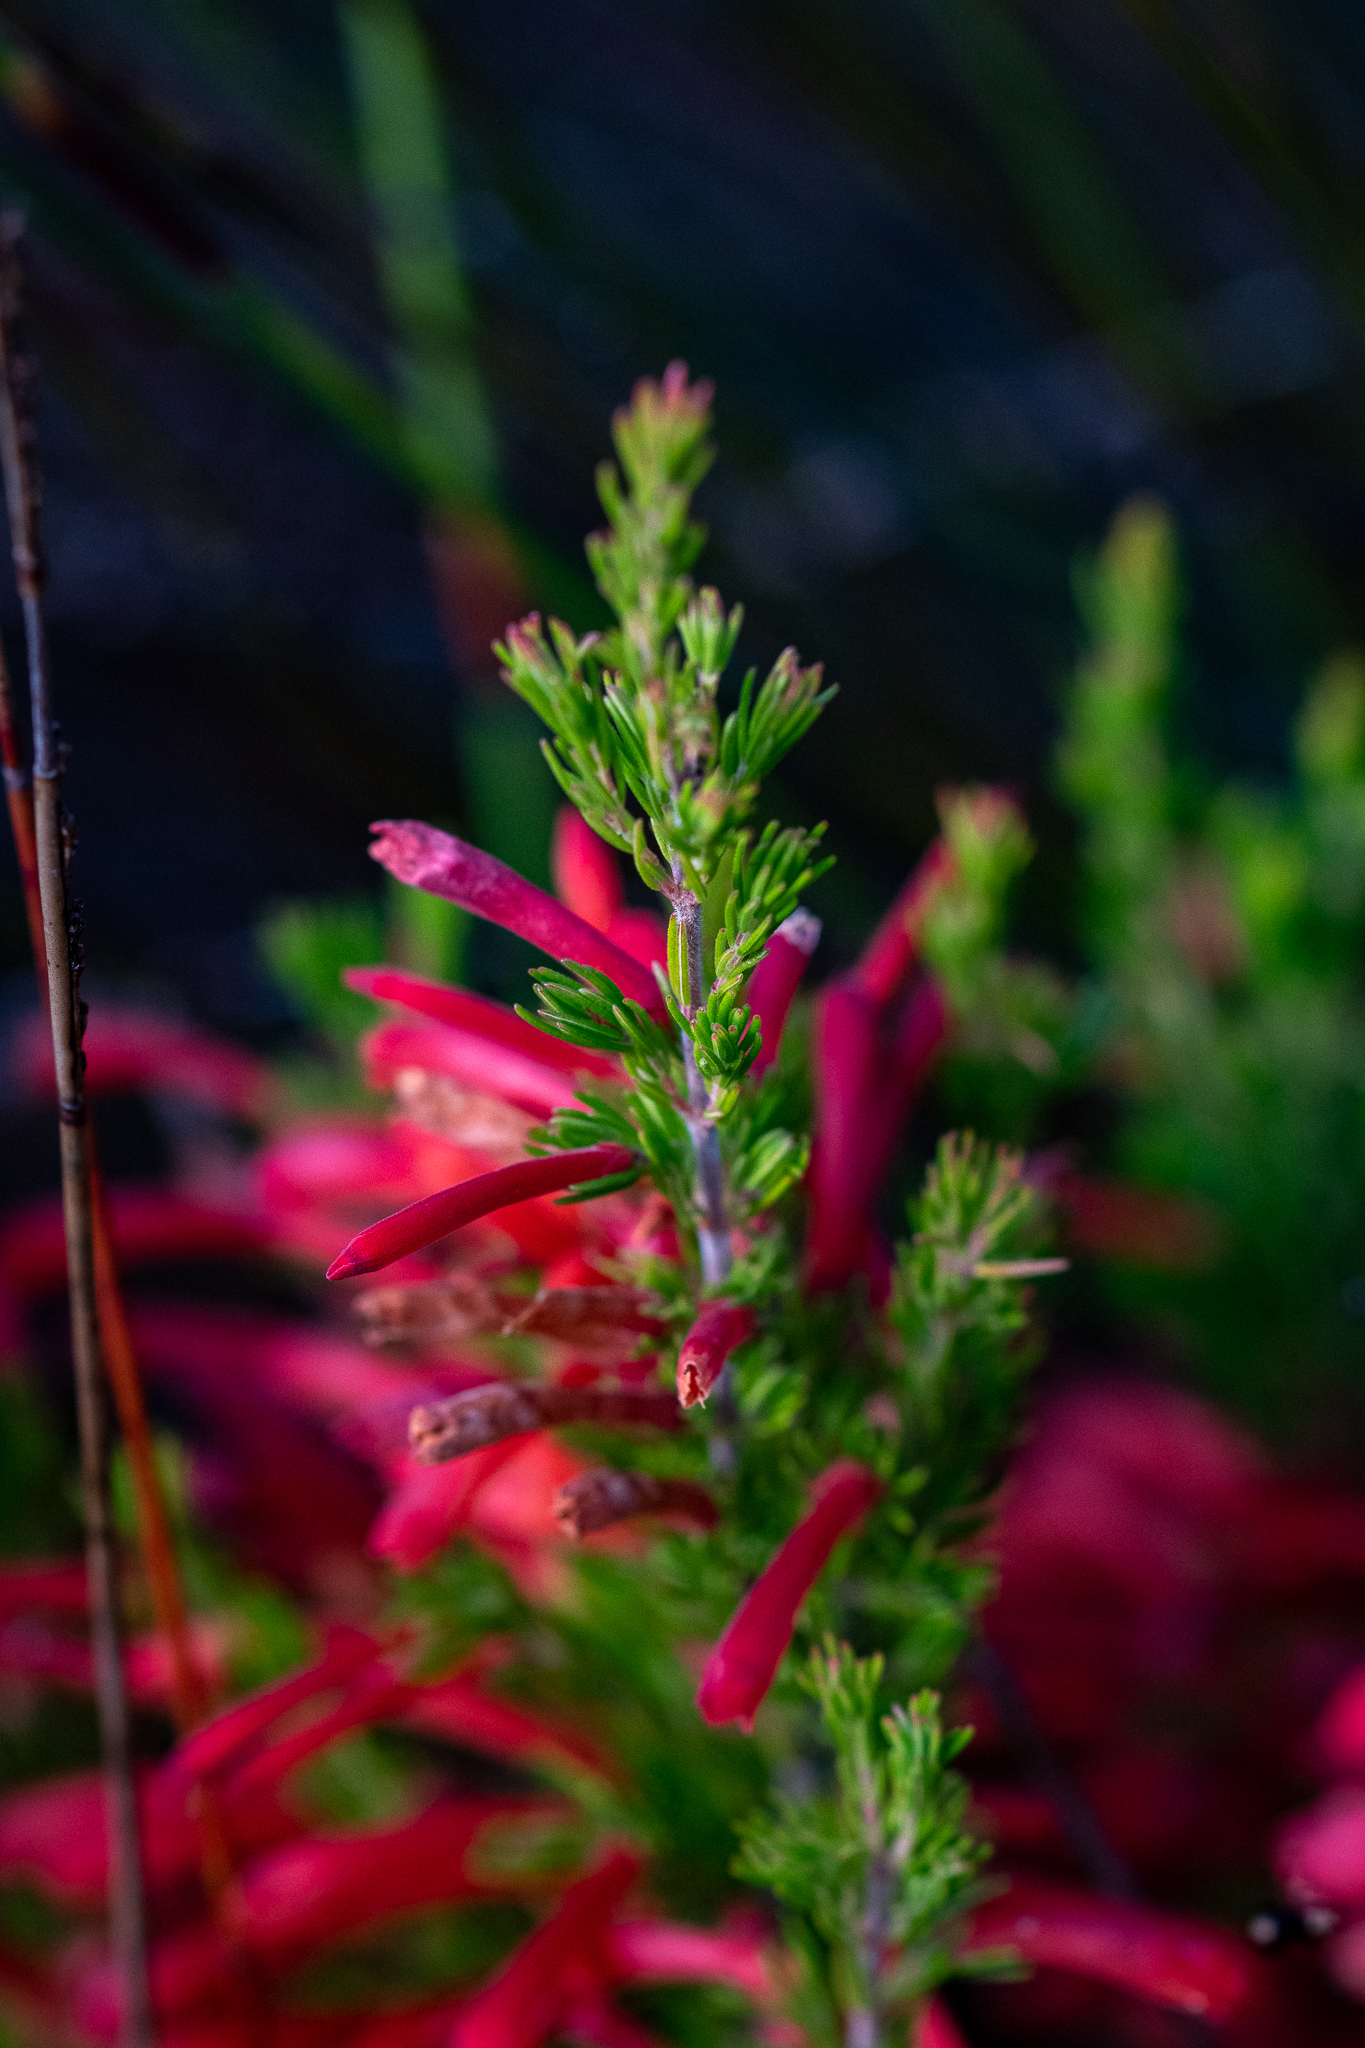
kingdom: Plantae
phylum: Tracheophyta
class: Magnoliopsida
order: Ericales
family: Ericaceae
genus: Erica
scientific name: Erica pillansii
